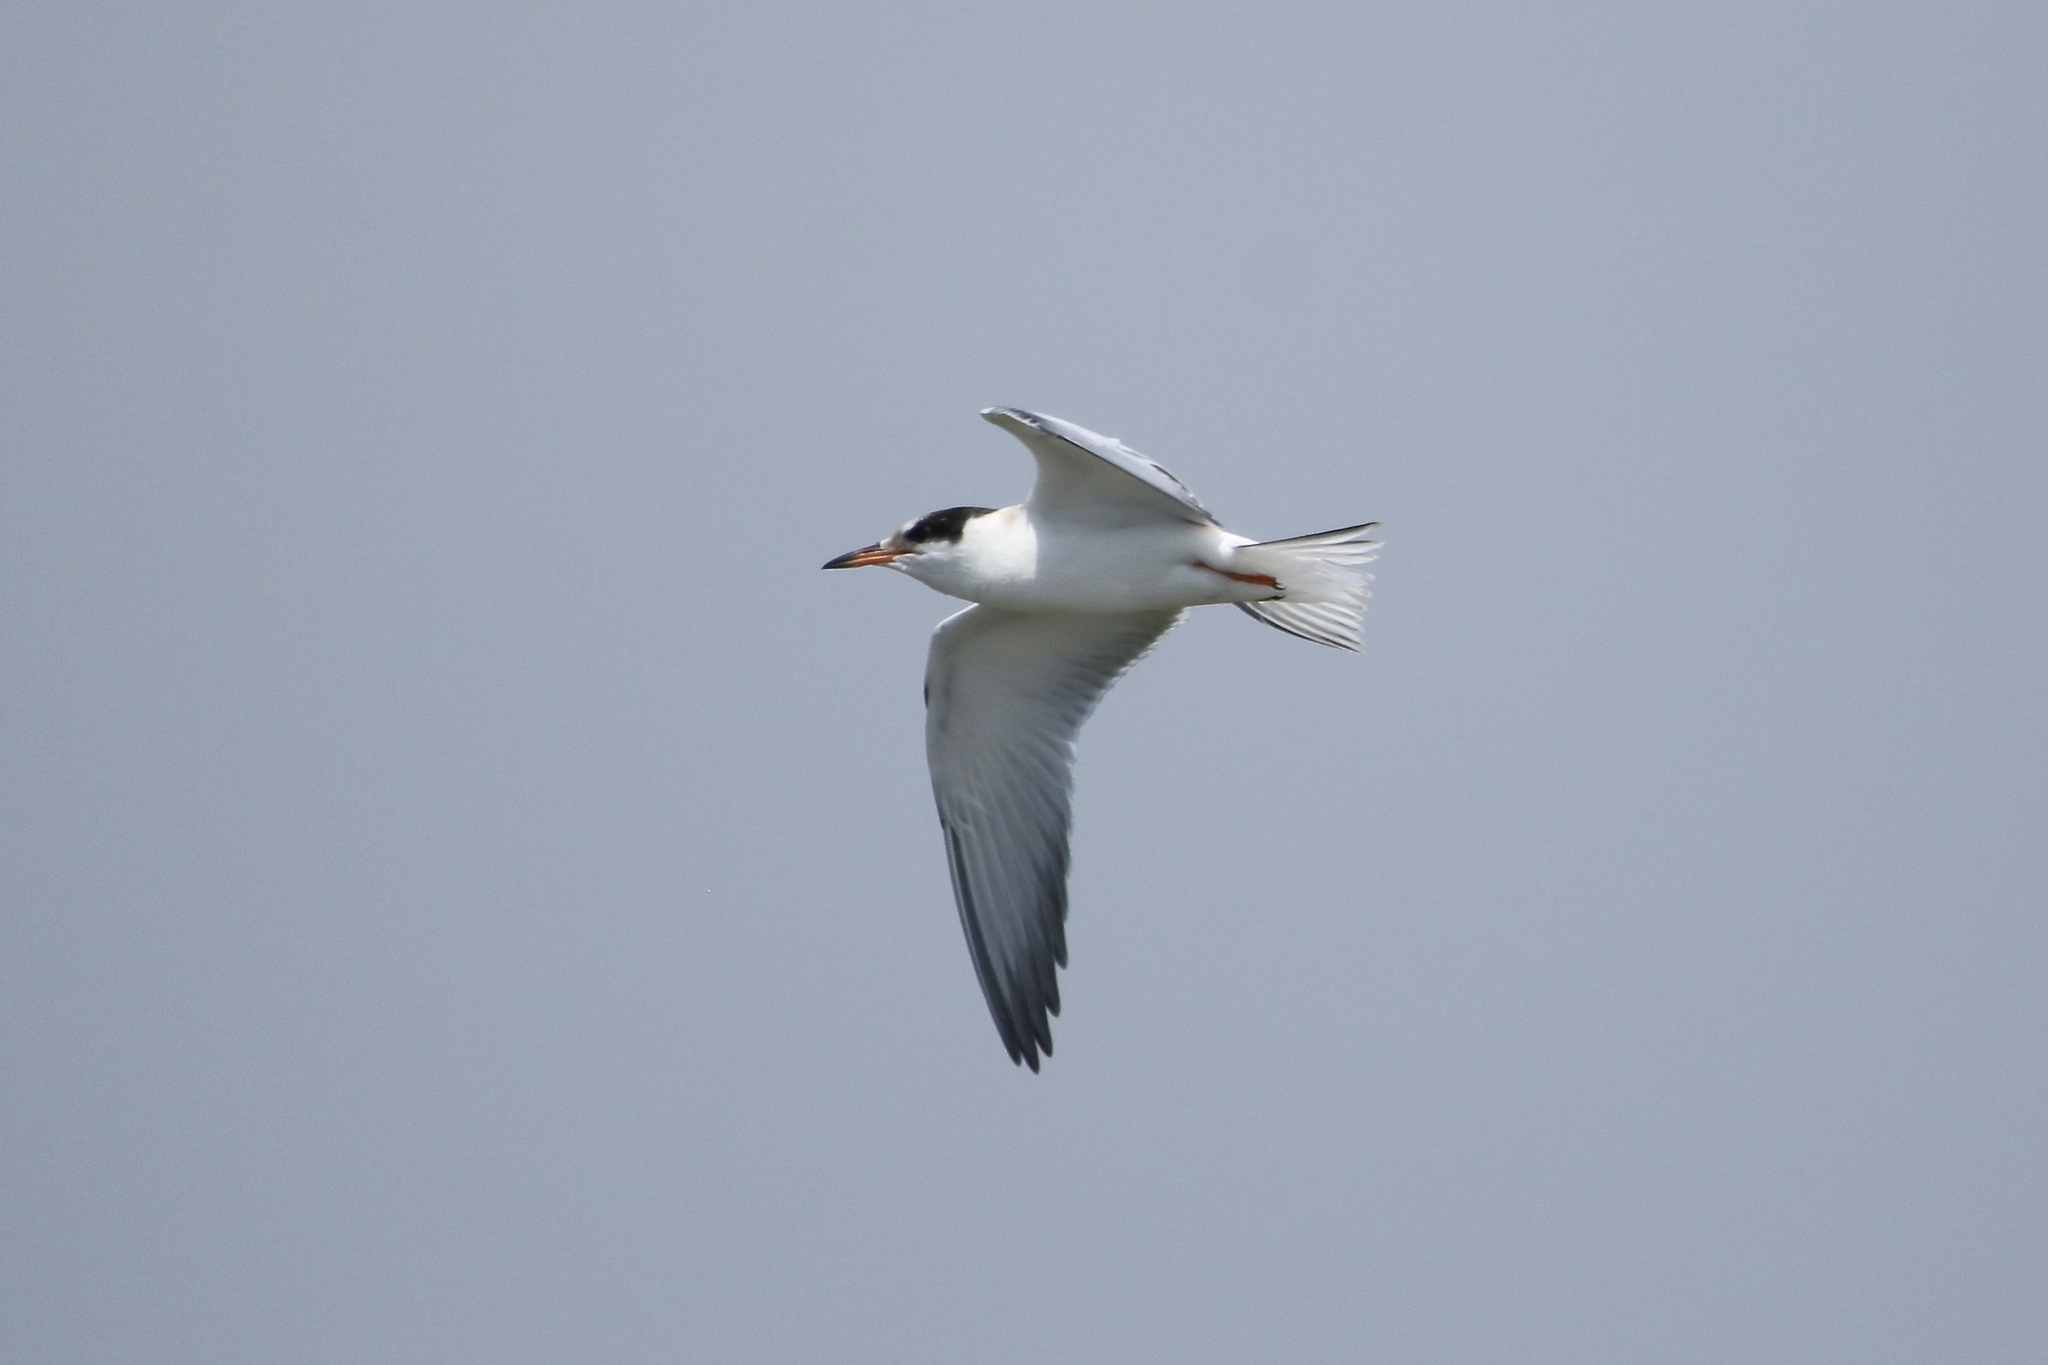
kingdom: Animalia
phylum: Chordata
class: Aves
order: Charadriiformes
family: Laridae
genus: Sterna
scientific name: Sterna hirundo
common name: Common tern
